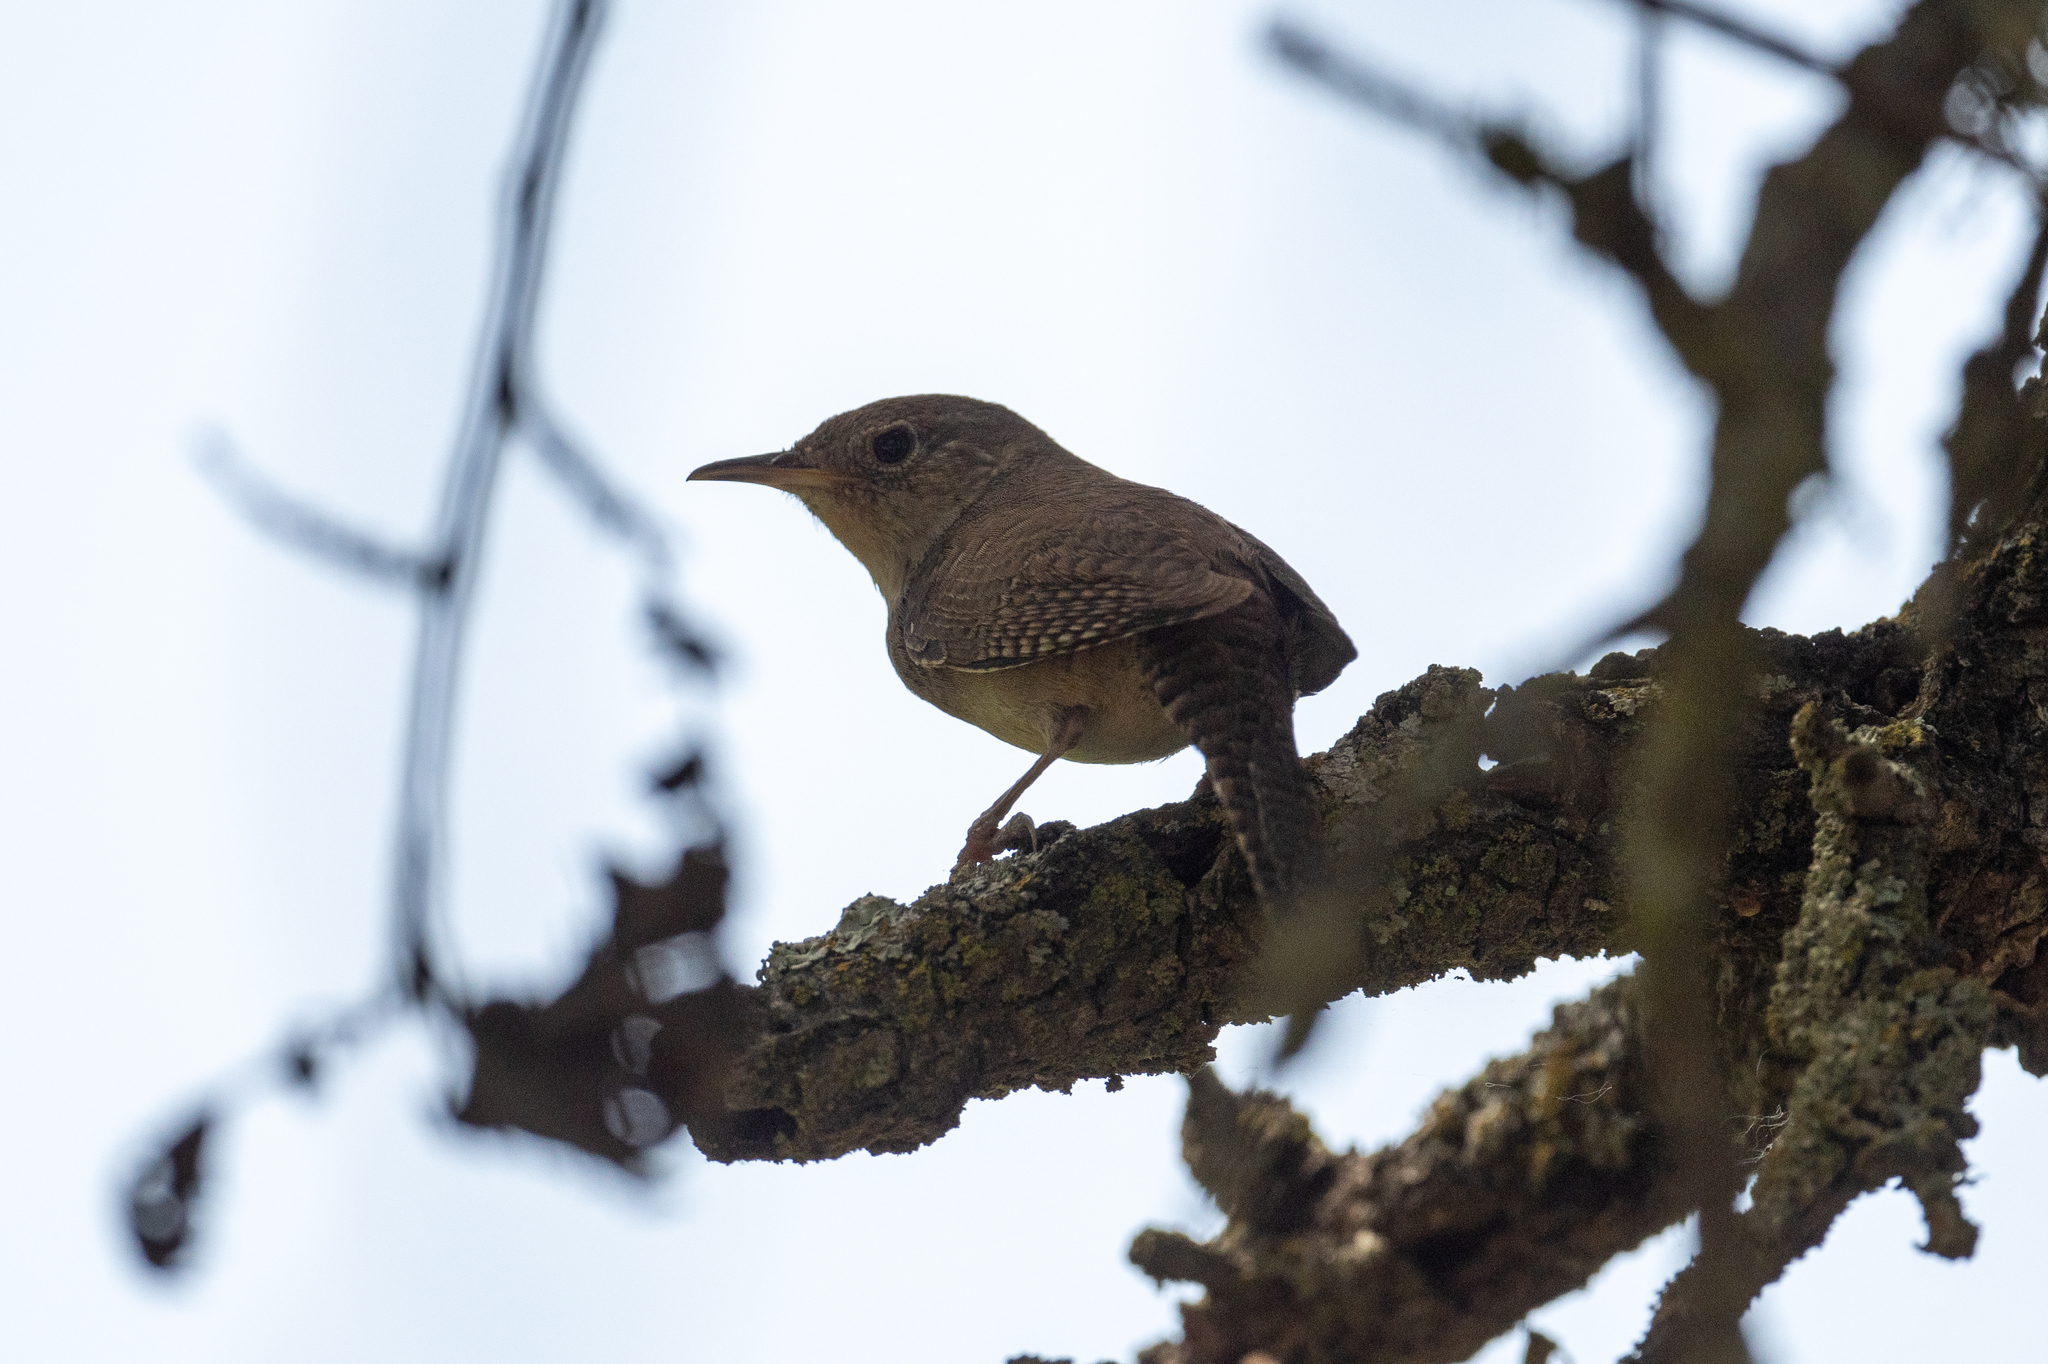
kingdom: Animalia
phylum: Chordata
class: Aves
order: Passeriformes
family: Troglodytidae
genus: Troglodytes
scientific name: Troglodytes aedon
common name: House wren
